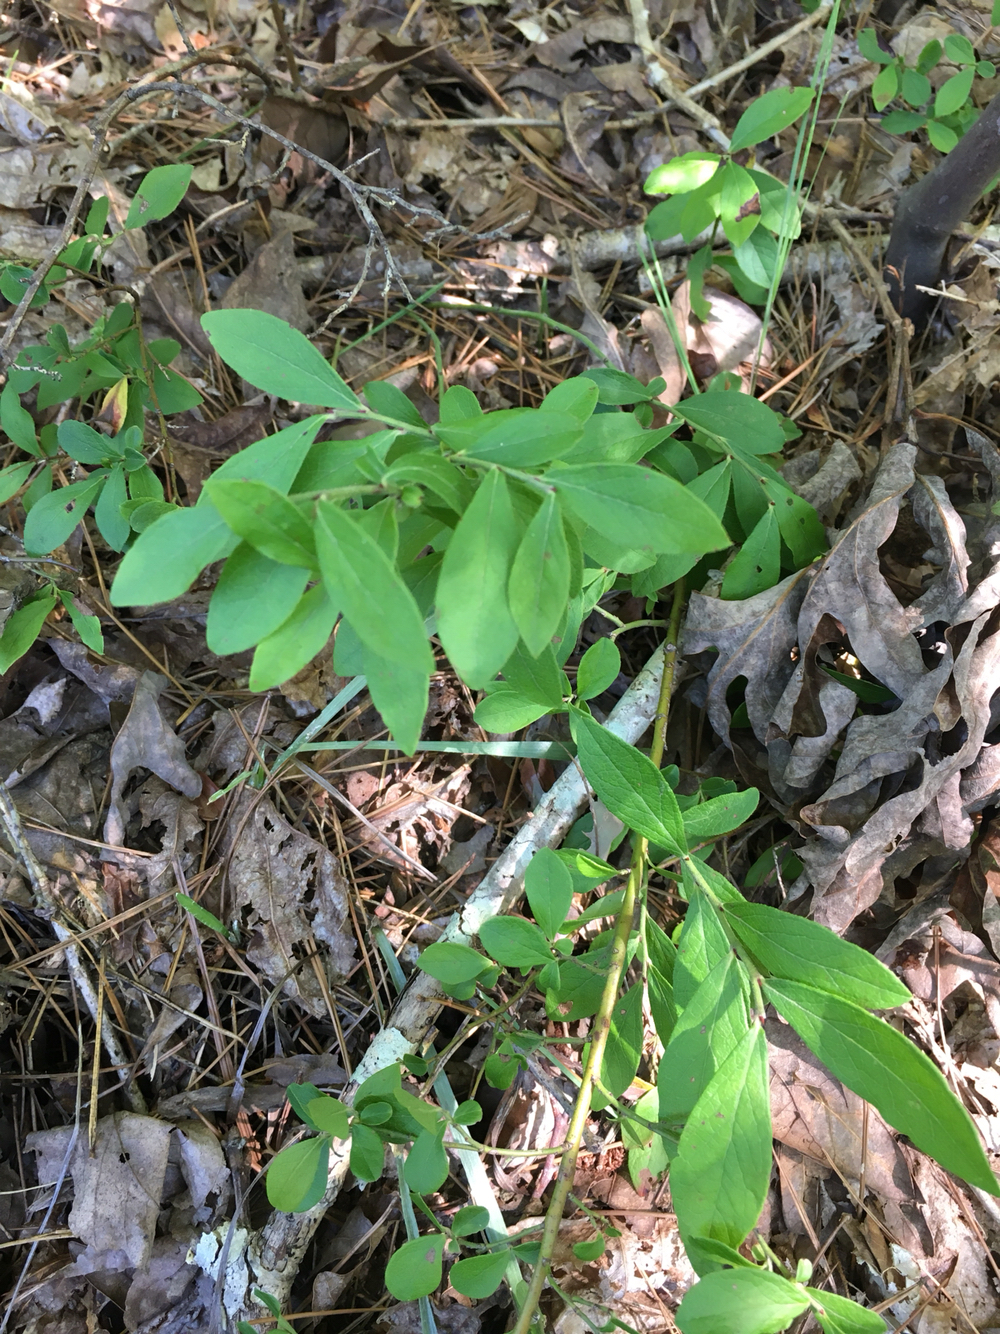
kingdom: Plantae
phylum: Tracheophyta
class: Magnoliopsida
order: Ericales
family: Ericaceae
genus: Vaccinium
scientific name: Vaccinium tenellum
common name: Southern blueberry
